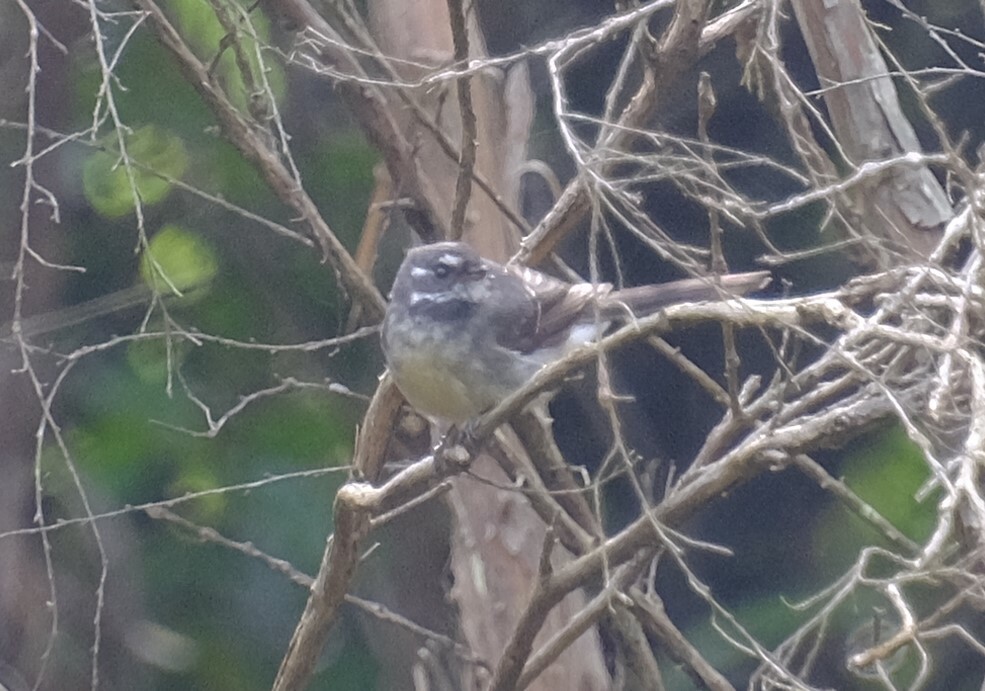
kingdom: Animalia
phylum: Chordata
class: Aves
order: Passeriformes
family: Rhipiduridae
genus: Rhipidura
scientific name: Rhipidura albiscapa
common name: Grey fantail
